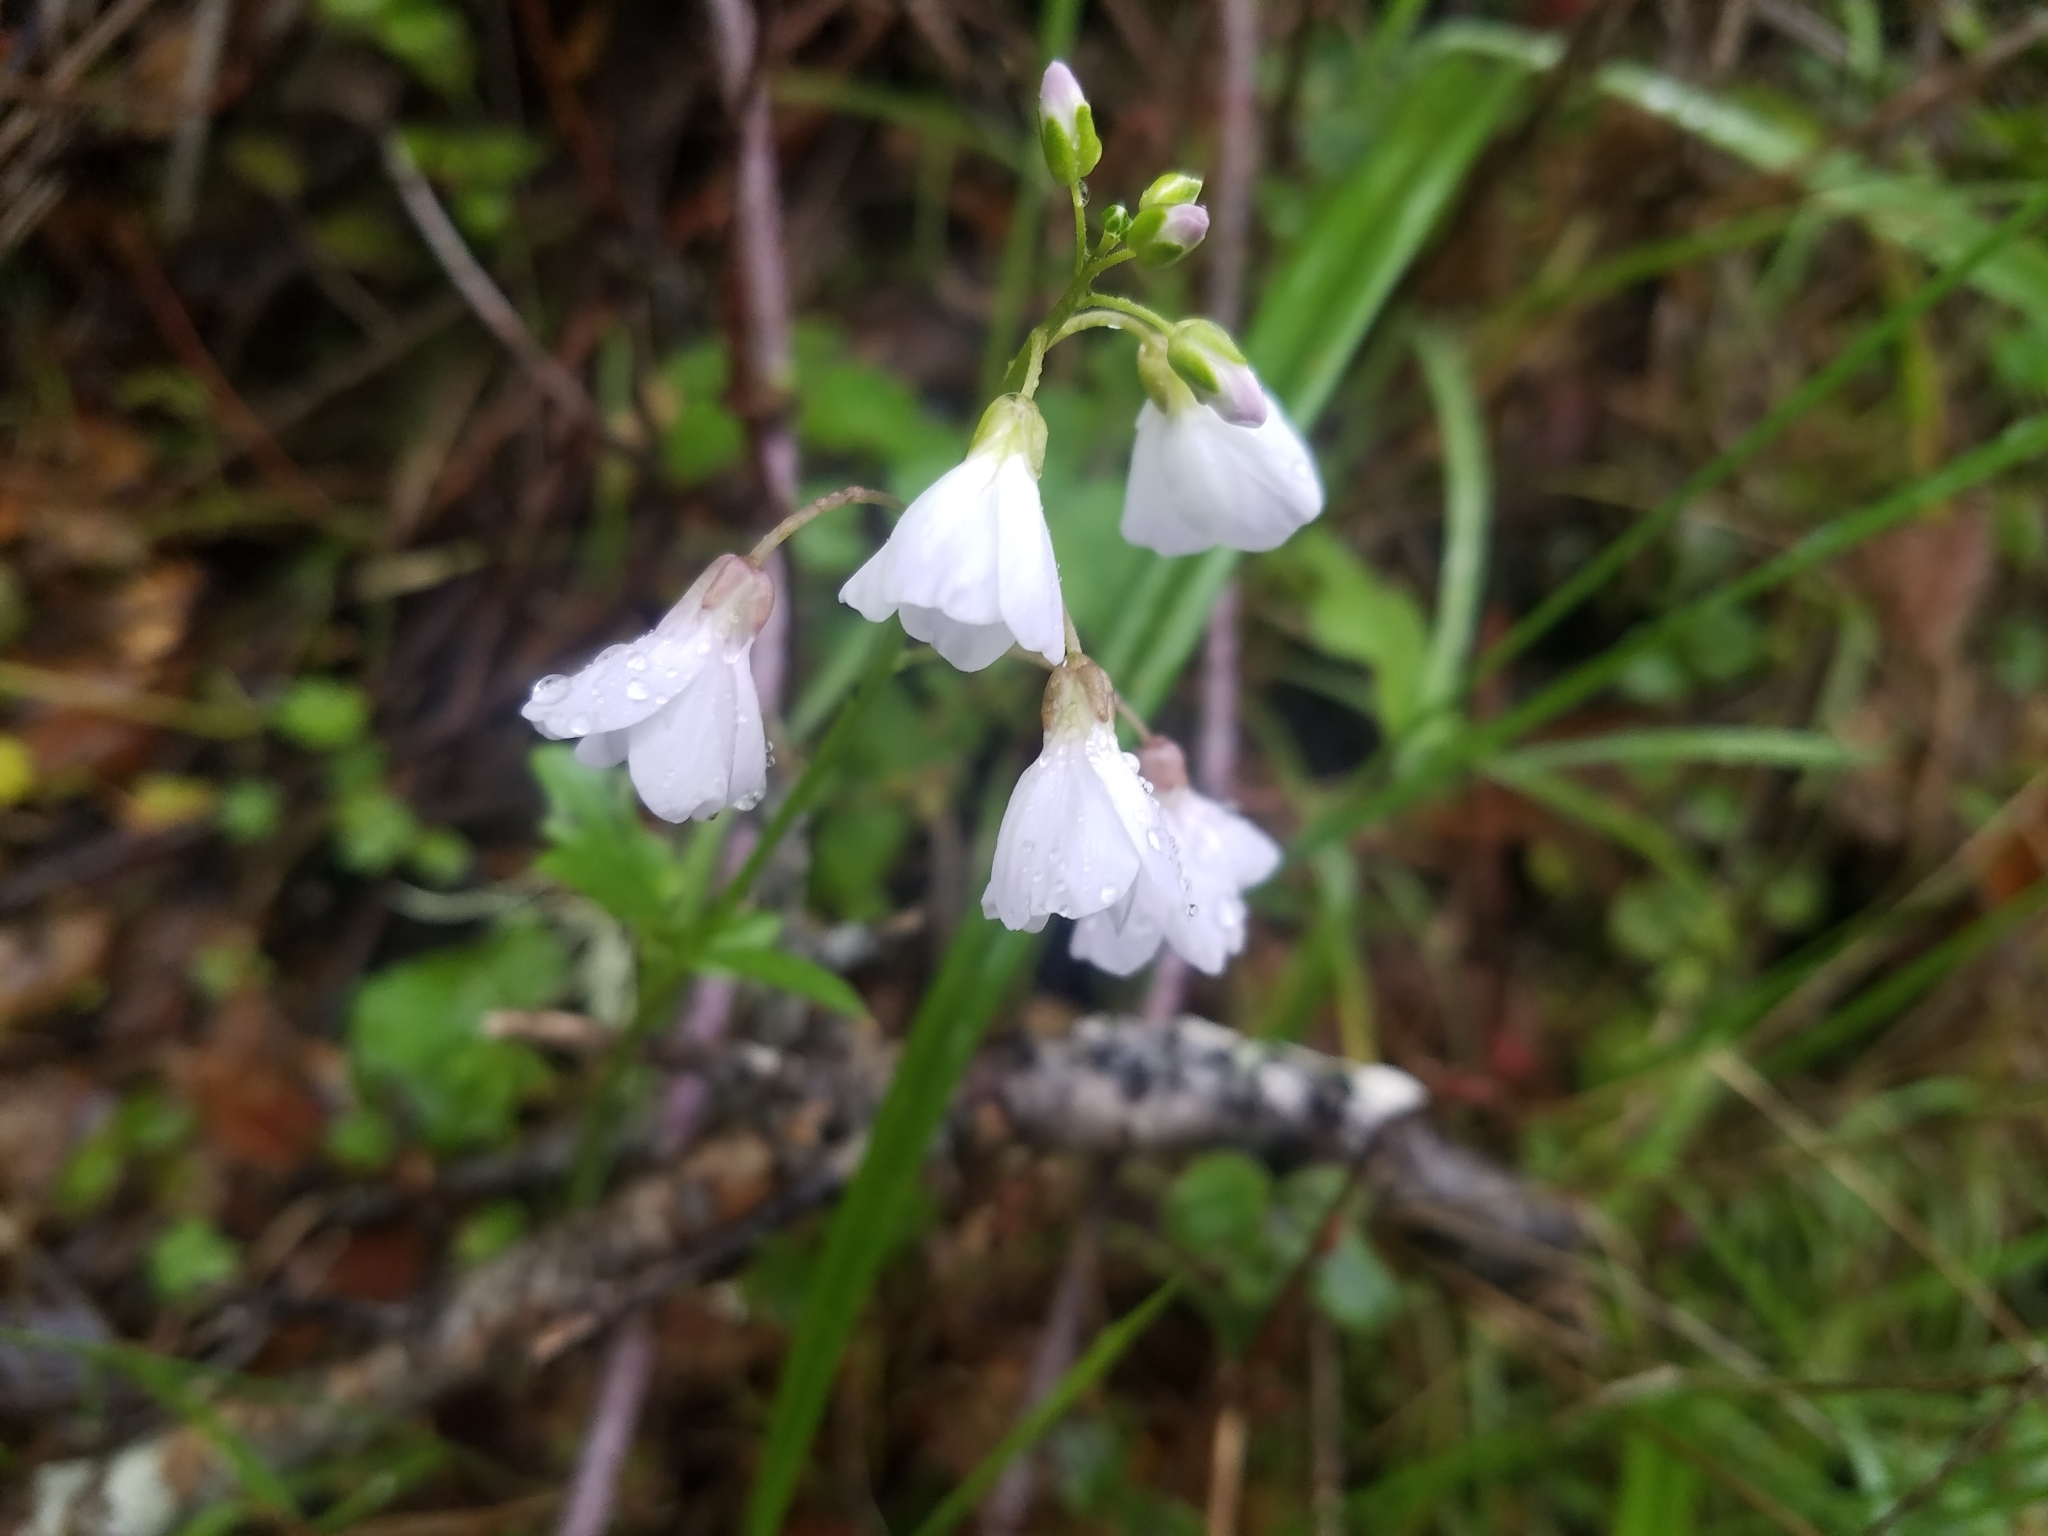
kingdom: Plantae
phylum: Tracheophyta
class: Magnoliopsida
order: Brassicales
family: Brassicaceae
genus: Cardamine
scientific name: Cardamine californica
